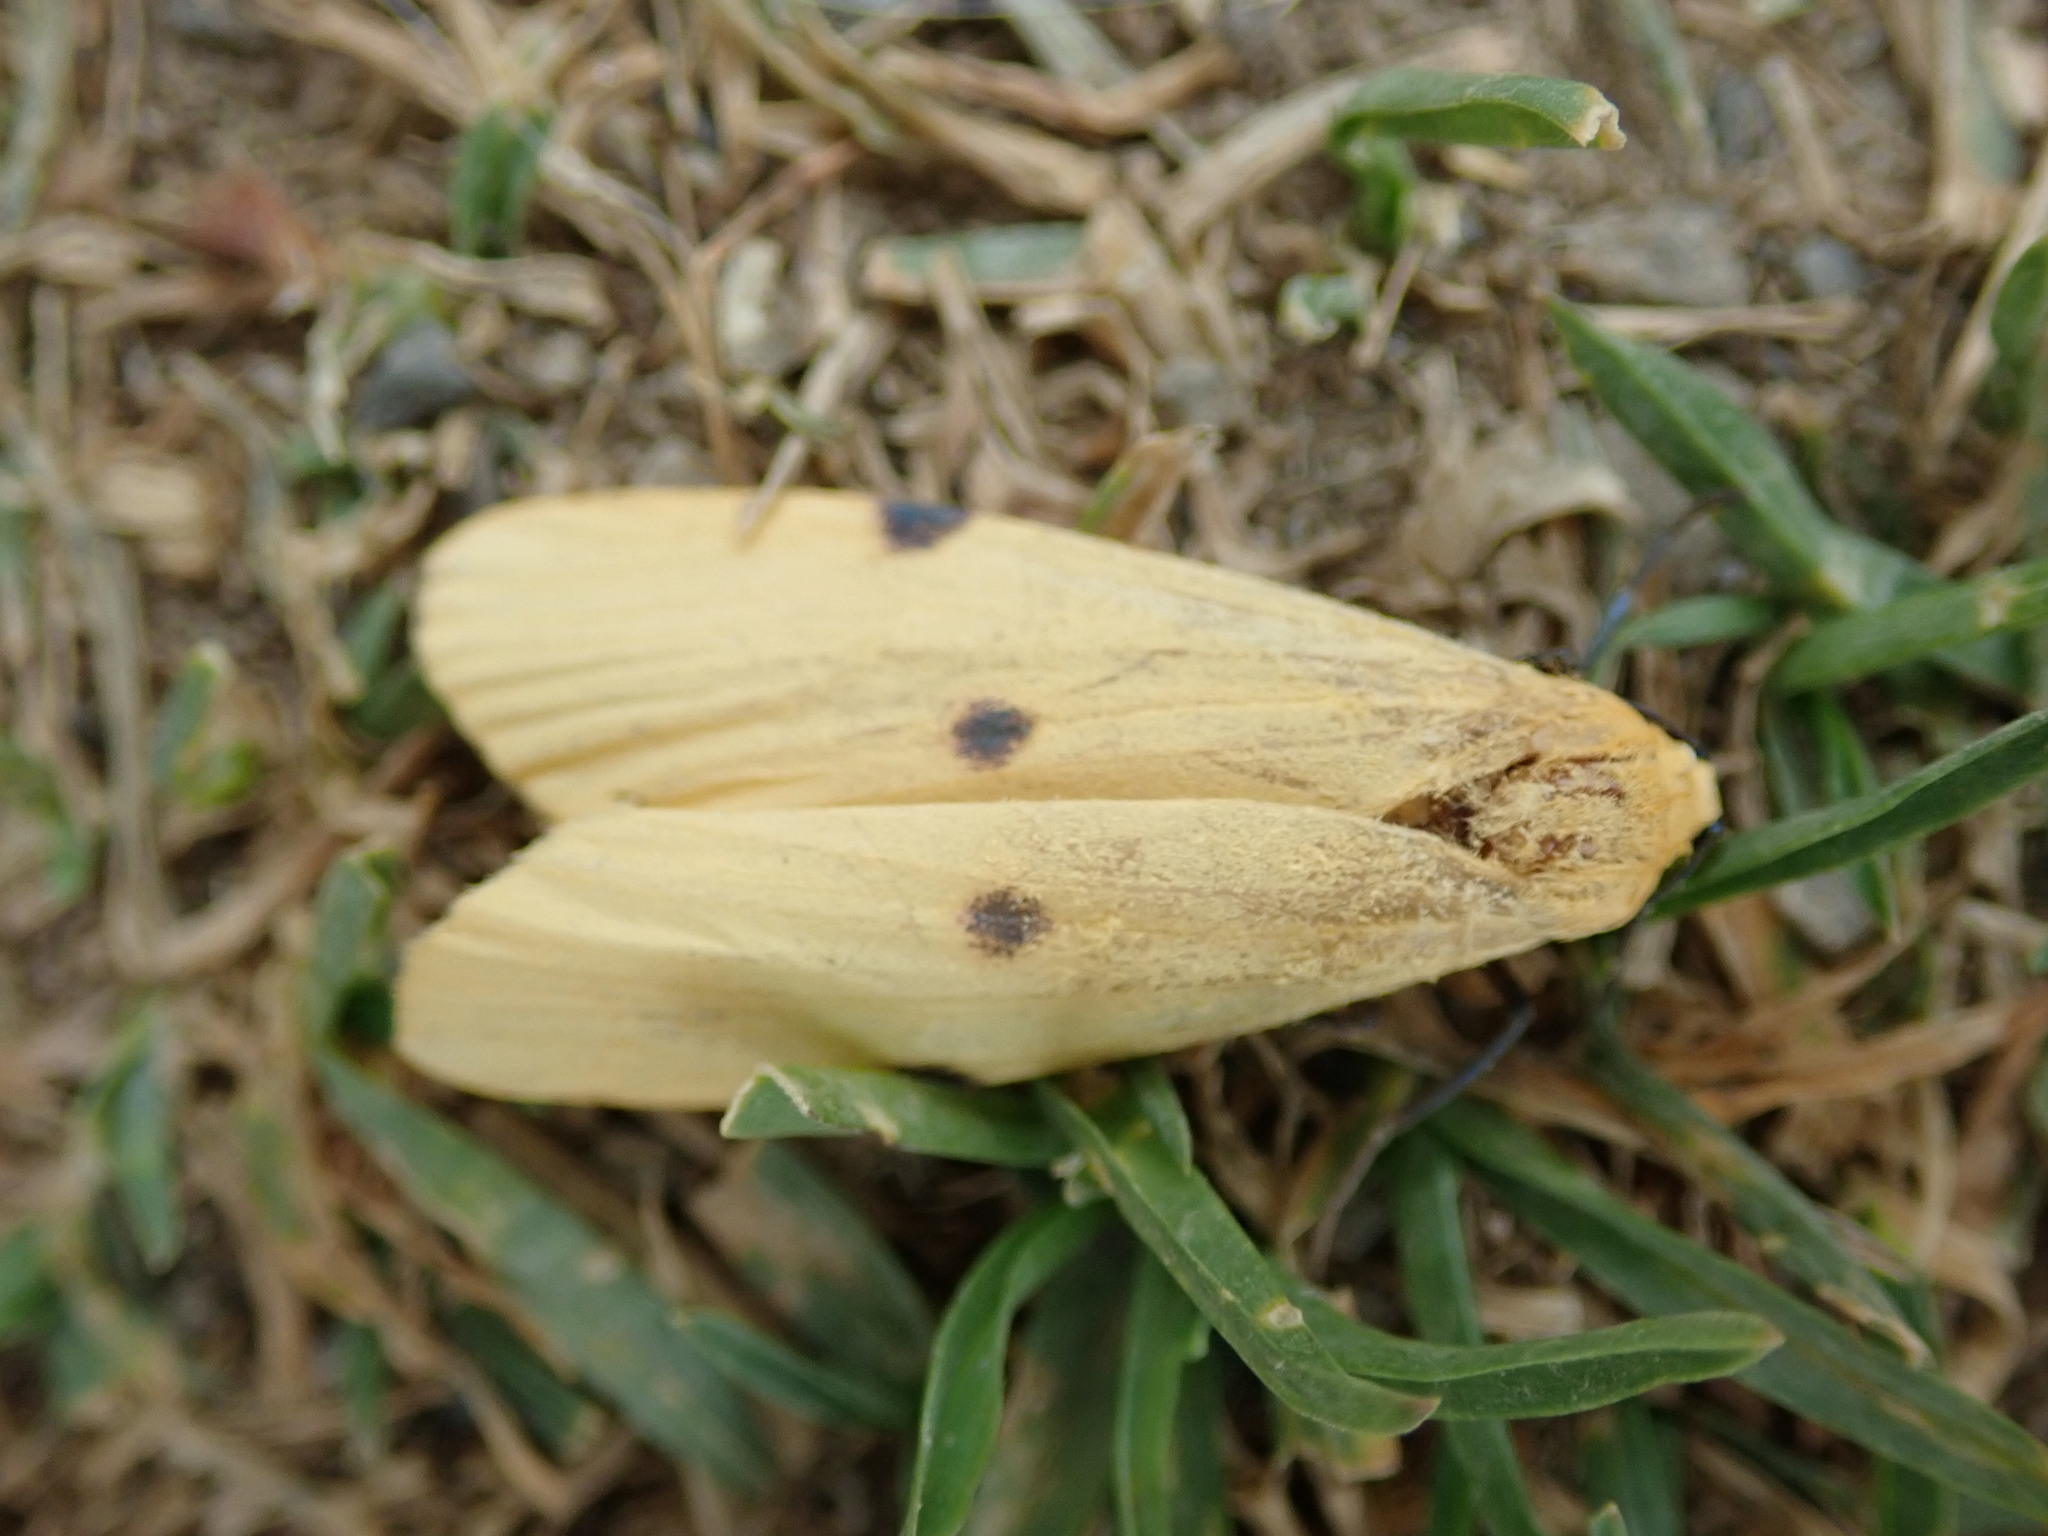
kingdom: Animalia
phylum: Arthropoda
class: Insecta
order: Lepidoptera
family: Erebidae
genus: Lithosia
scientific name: Lithosia quadra
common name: Four-spotted footman
